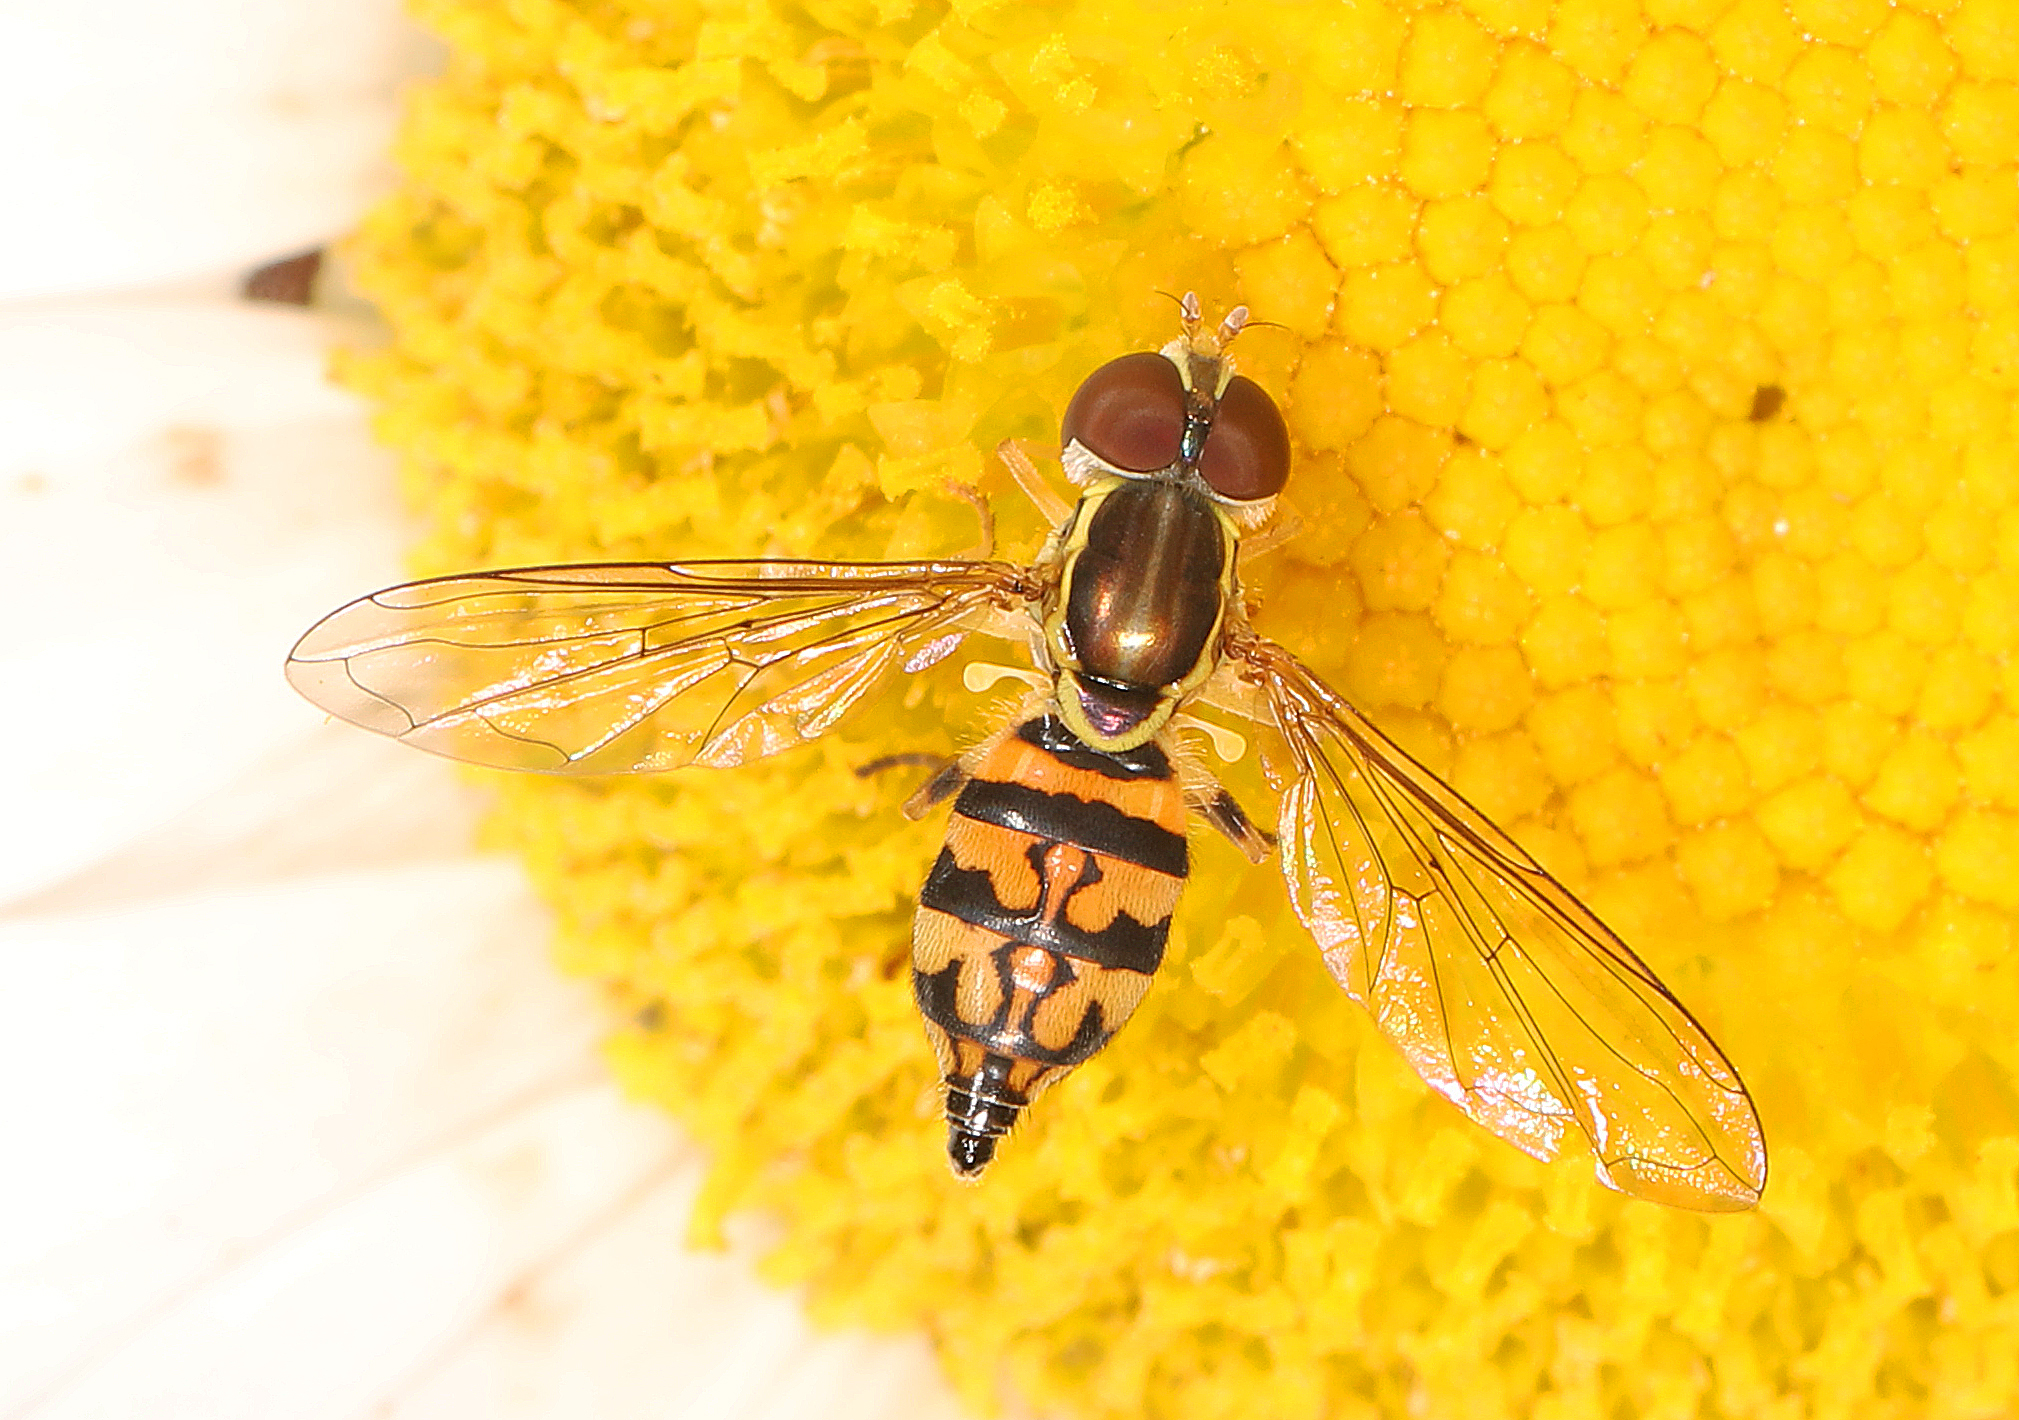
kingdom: Animalia
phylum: Arthropoda
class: Insecta
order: Diptera
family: Syrphidae
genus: Toxomerus
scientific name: Toxomerus geminatus
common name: Eastern calligrapher
